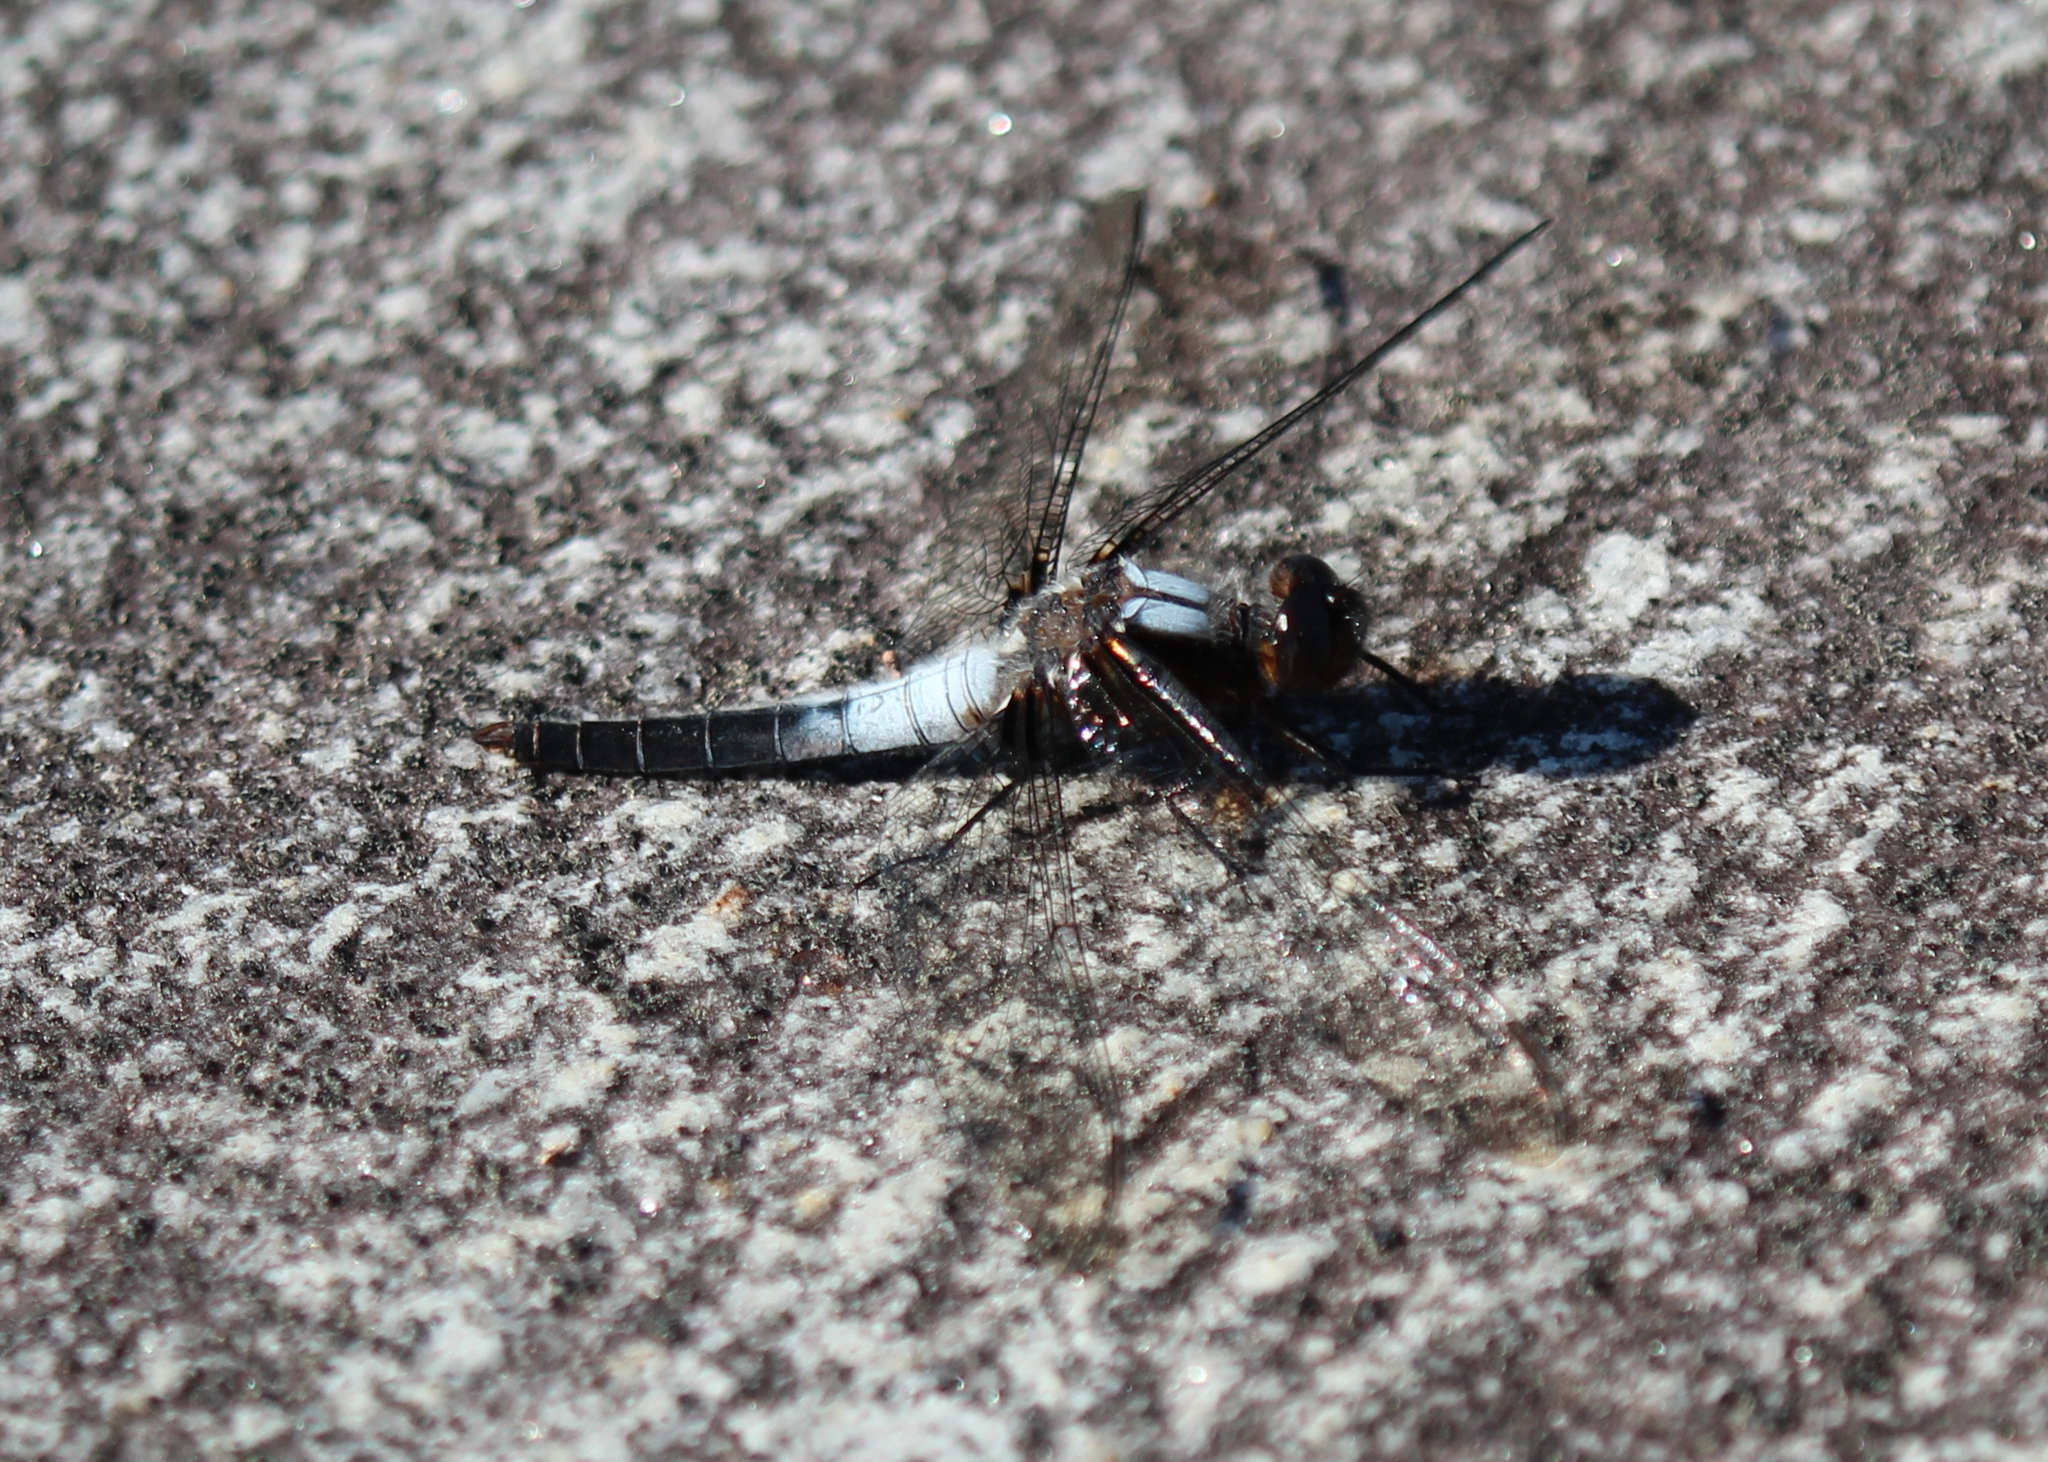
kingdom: Animalia
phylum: Arthropoda
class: Insecta
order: Odonata
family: Libellulidae
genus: Ladona
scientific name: Ladona julia
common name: Chalk-fronted corporal
